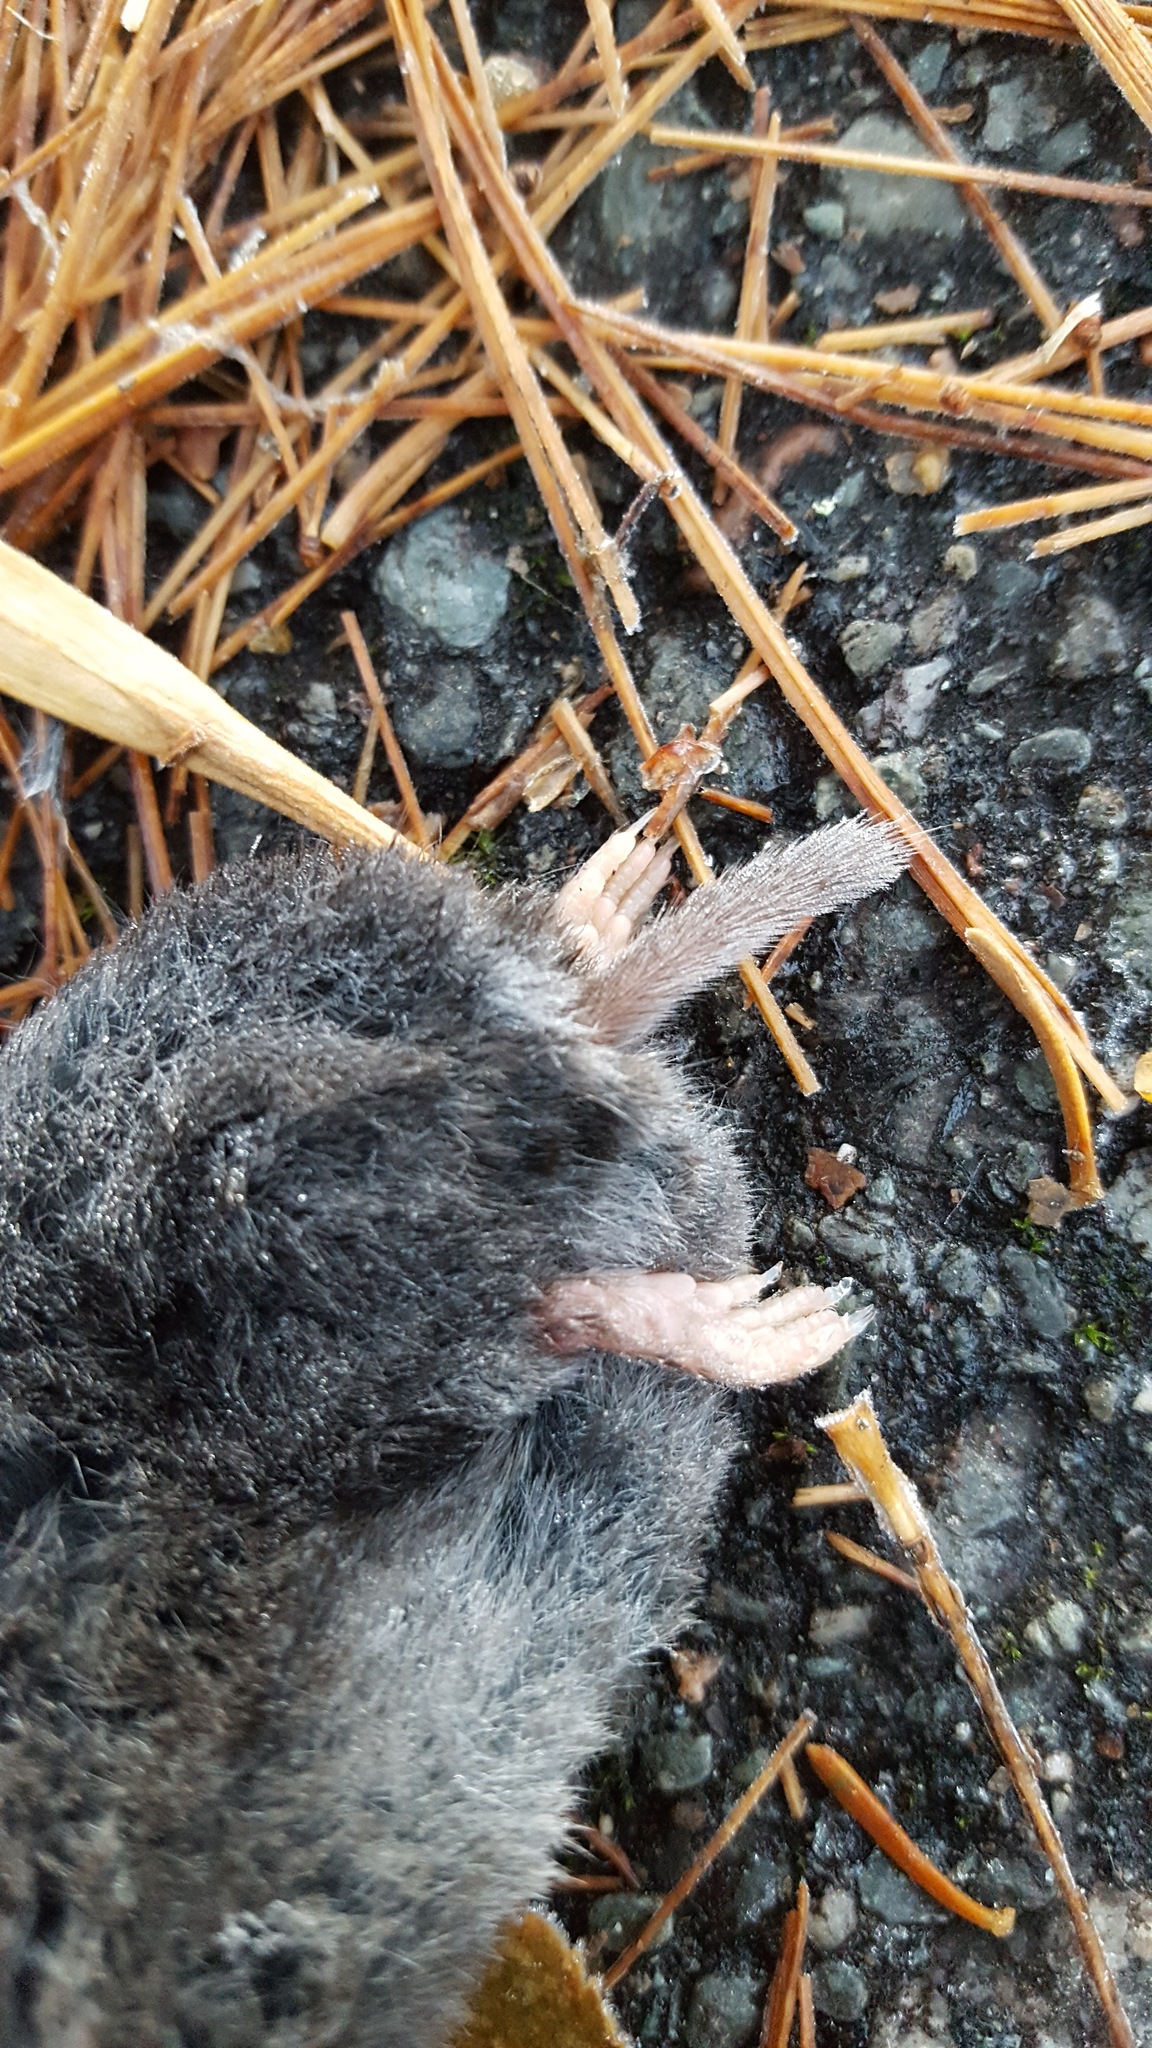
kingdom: Animalia
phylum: Chordata
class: Mammalia
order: Soricomorpha
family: Soricidae
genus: Blarina
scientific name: Blarina brevicauda
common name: Northern short-tailed shrew
